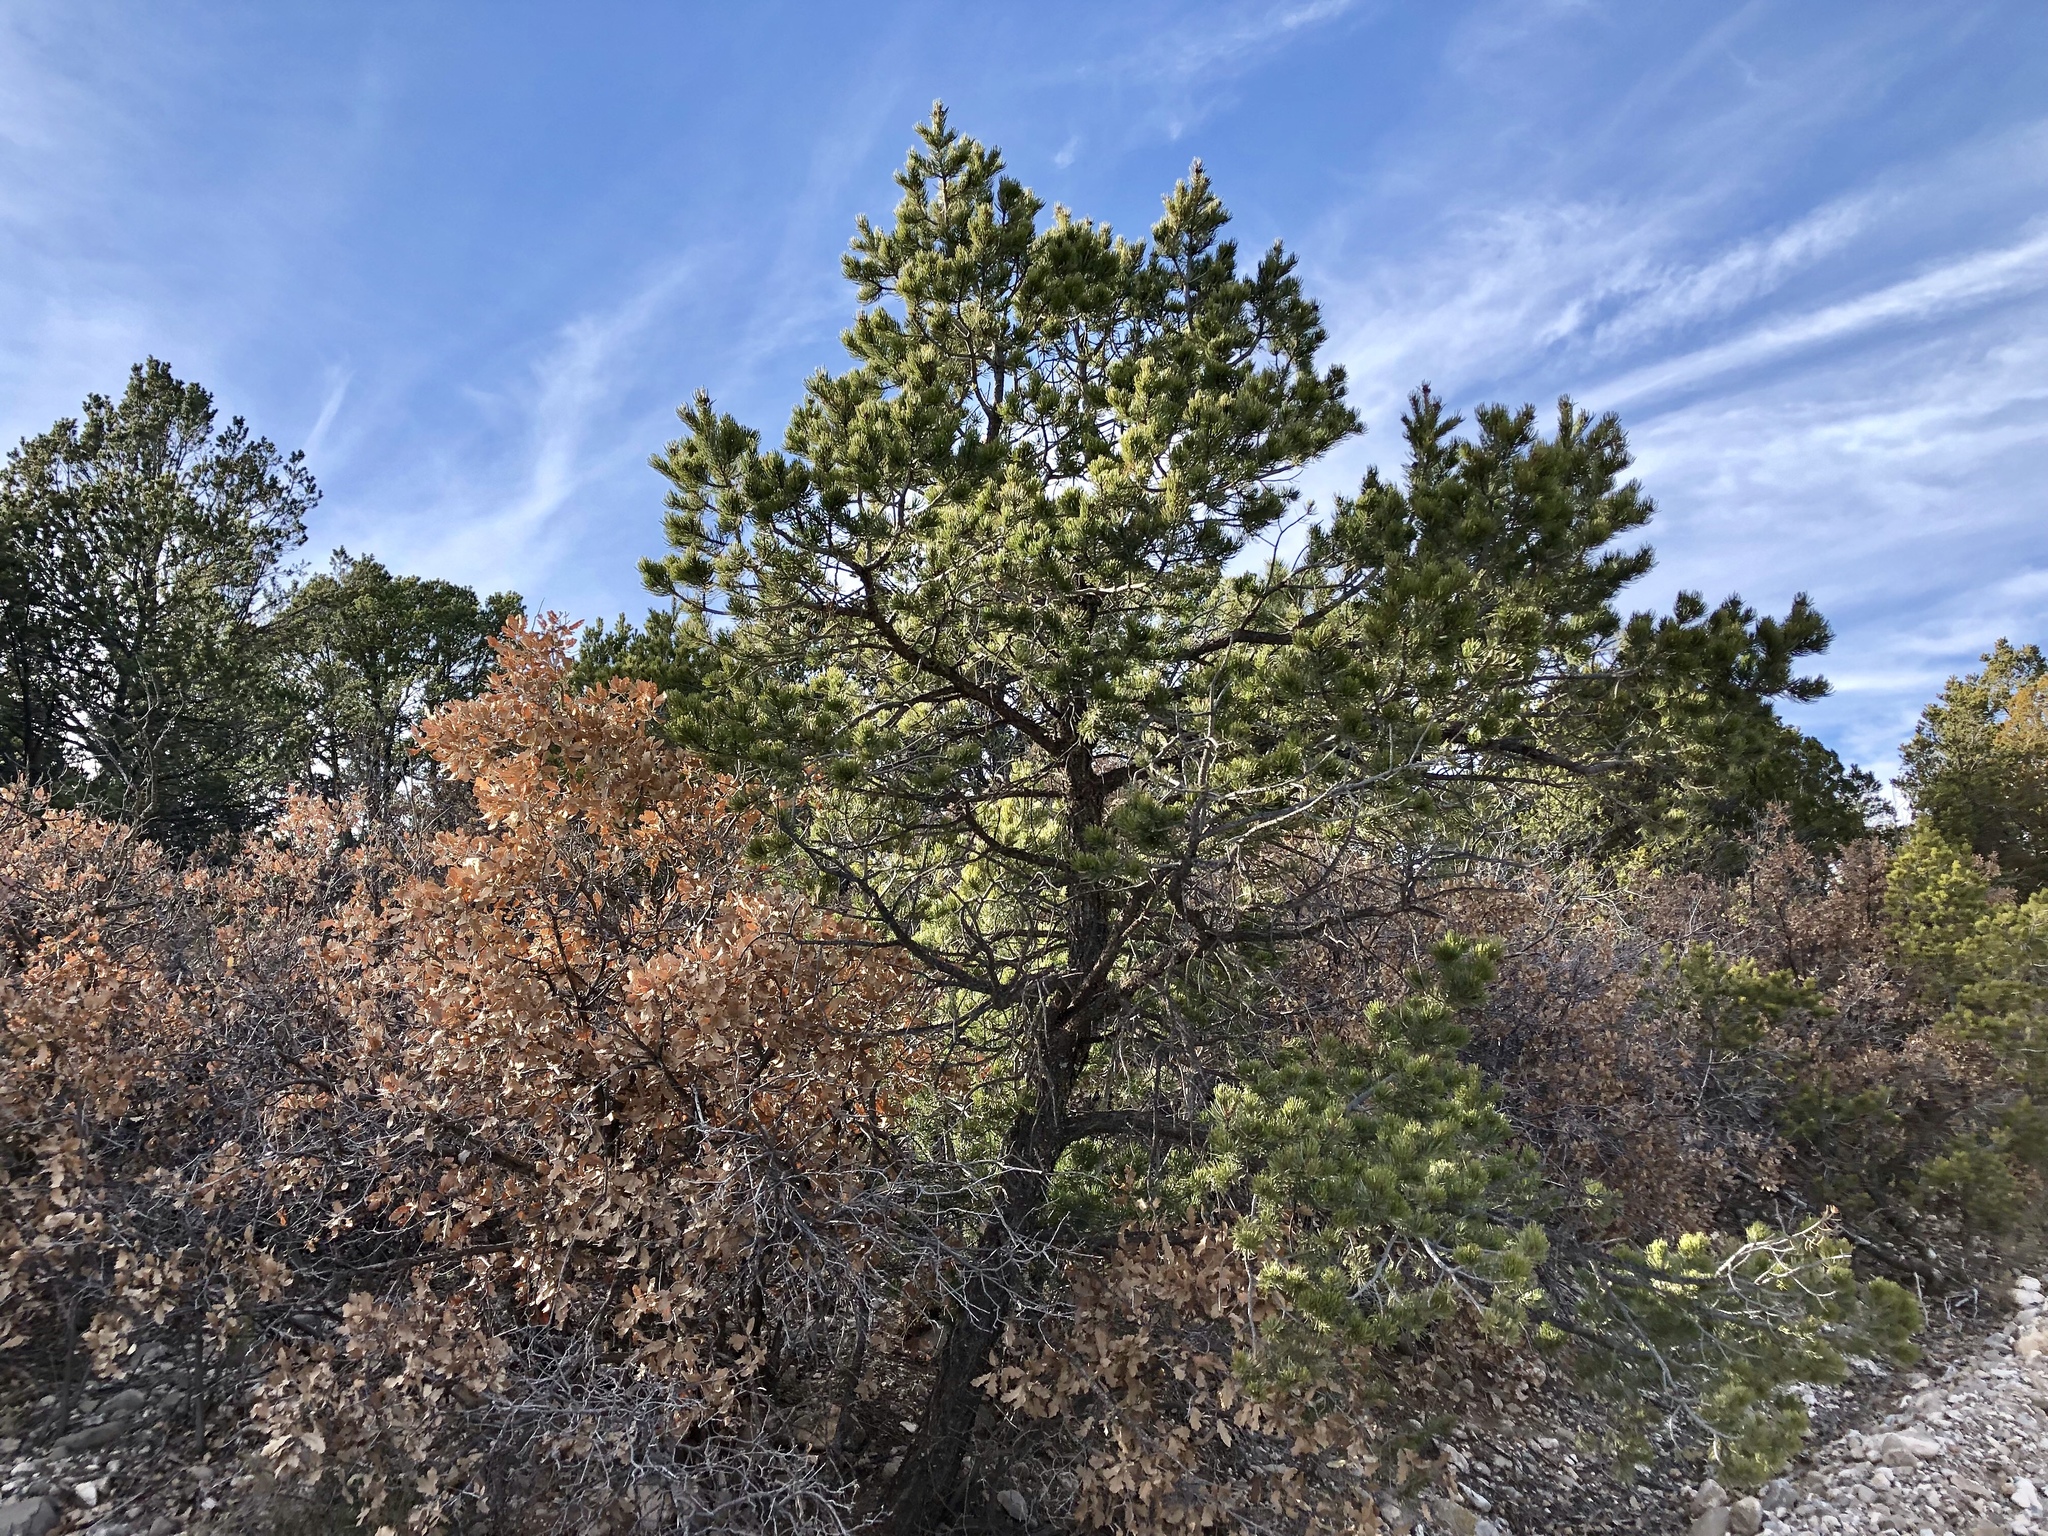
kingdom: Plantae
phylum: Tracheophyta
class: Pinopsida
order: Pinales
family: Pinaceae
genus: Pinus
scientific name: Pinus edulis
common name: Colorado pinyon
